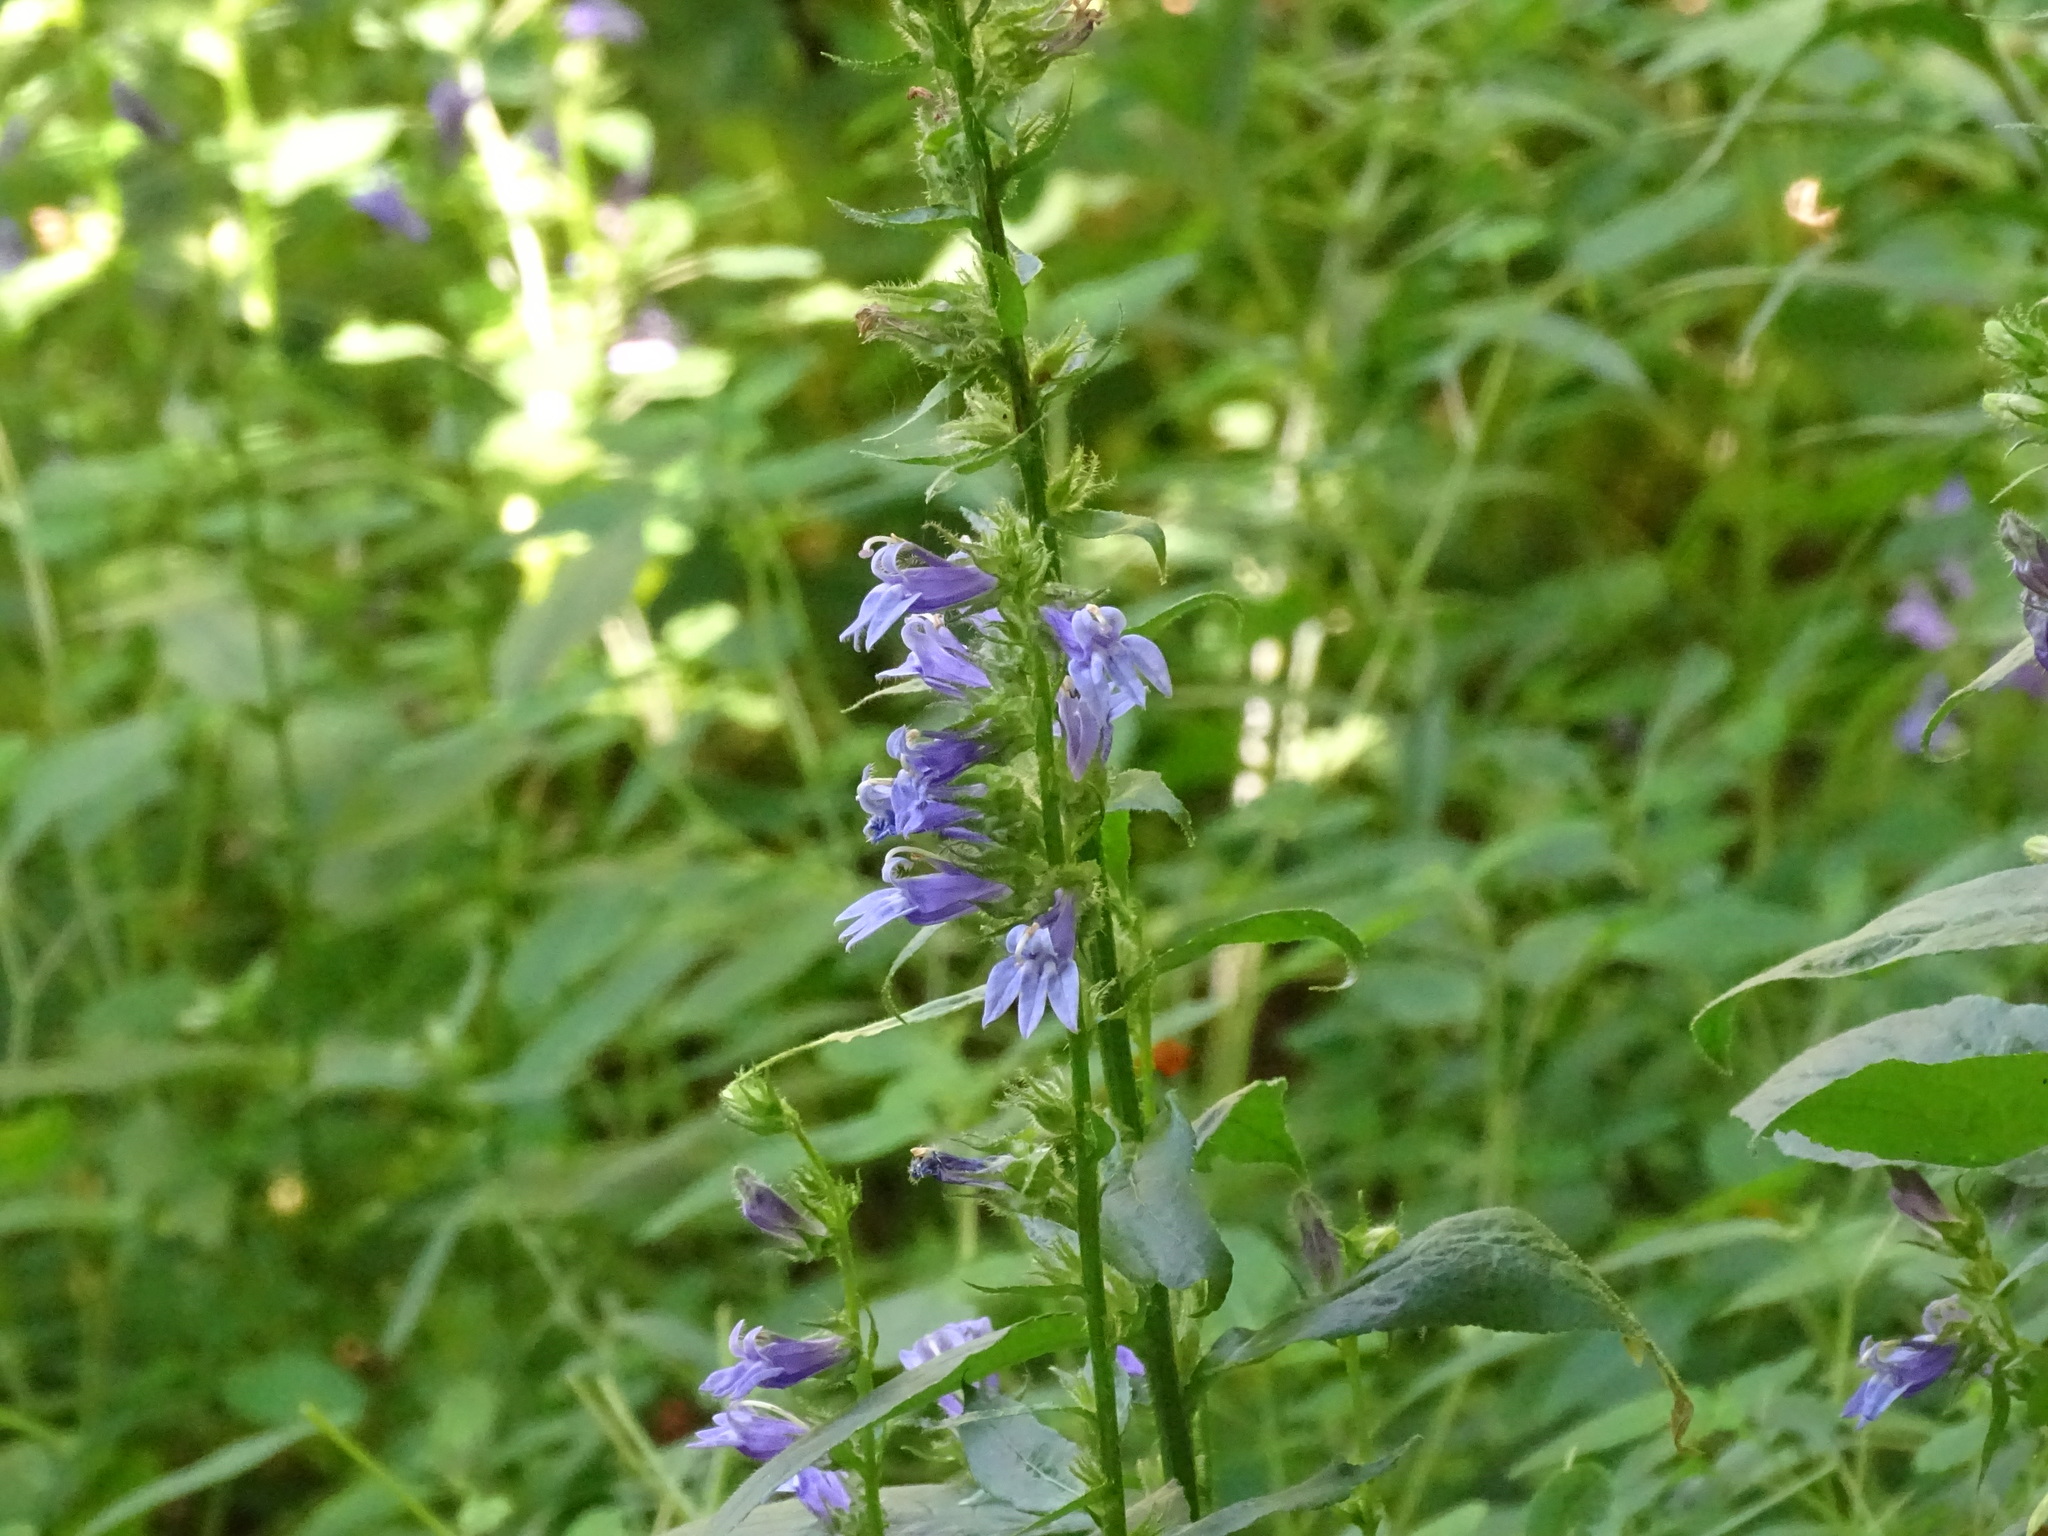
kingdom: Plantae
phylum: Tracheophyta
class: Magnoliopsida
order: Asterales
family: Campanulaceae
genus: Lobelia
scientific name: Lobelia siphilitica
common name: Great lobelia
